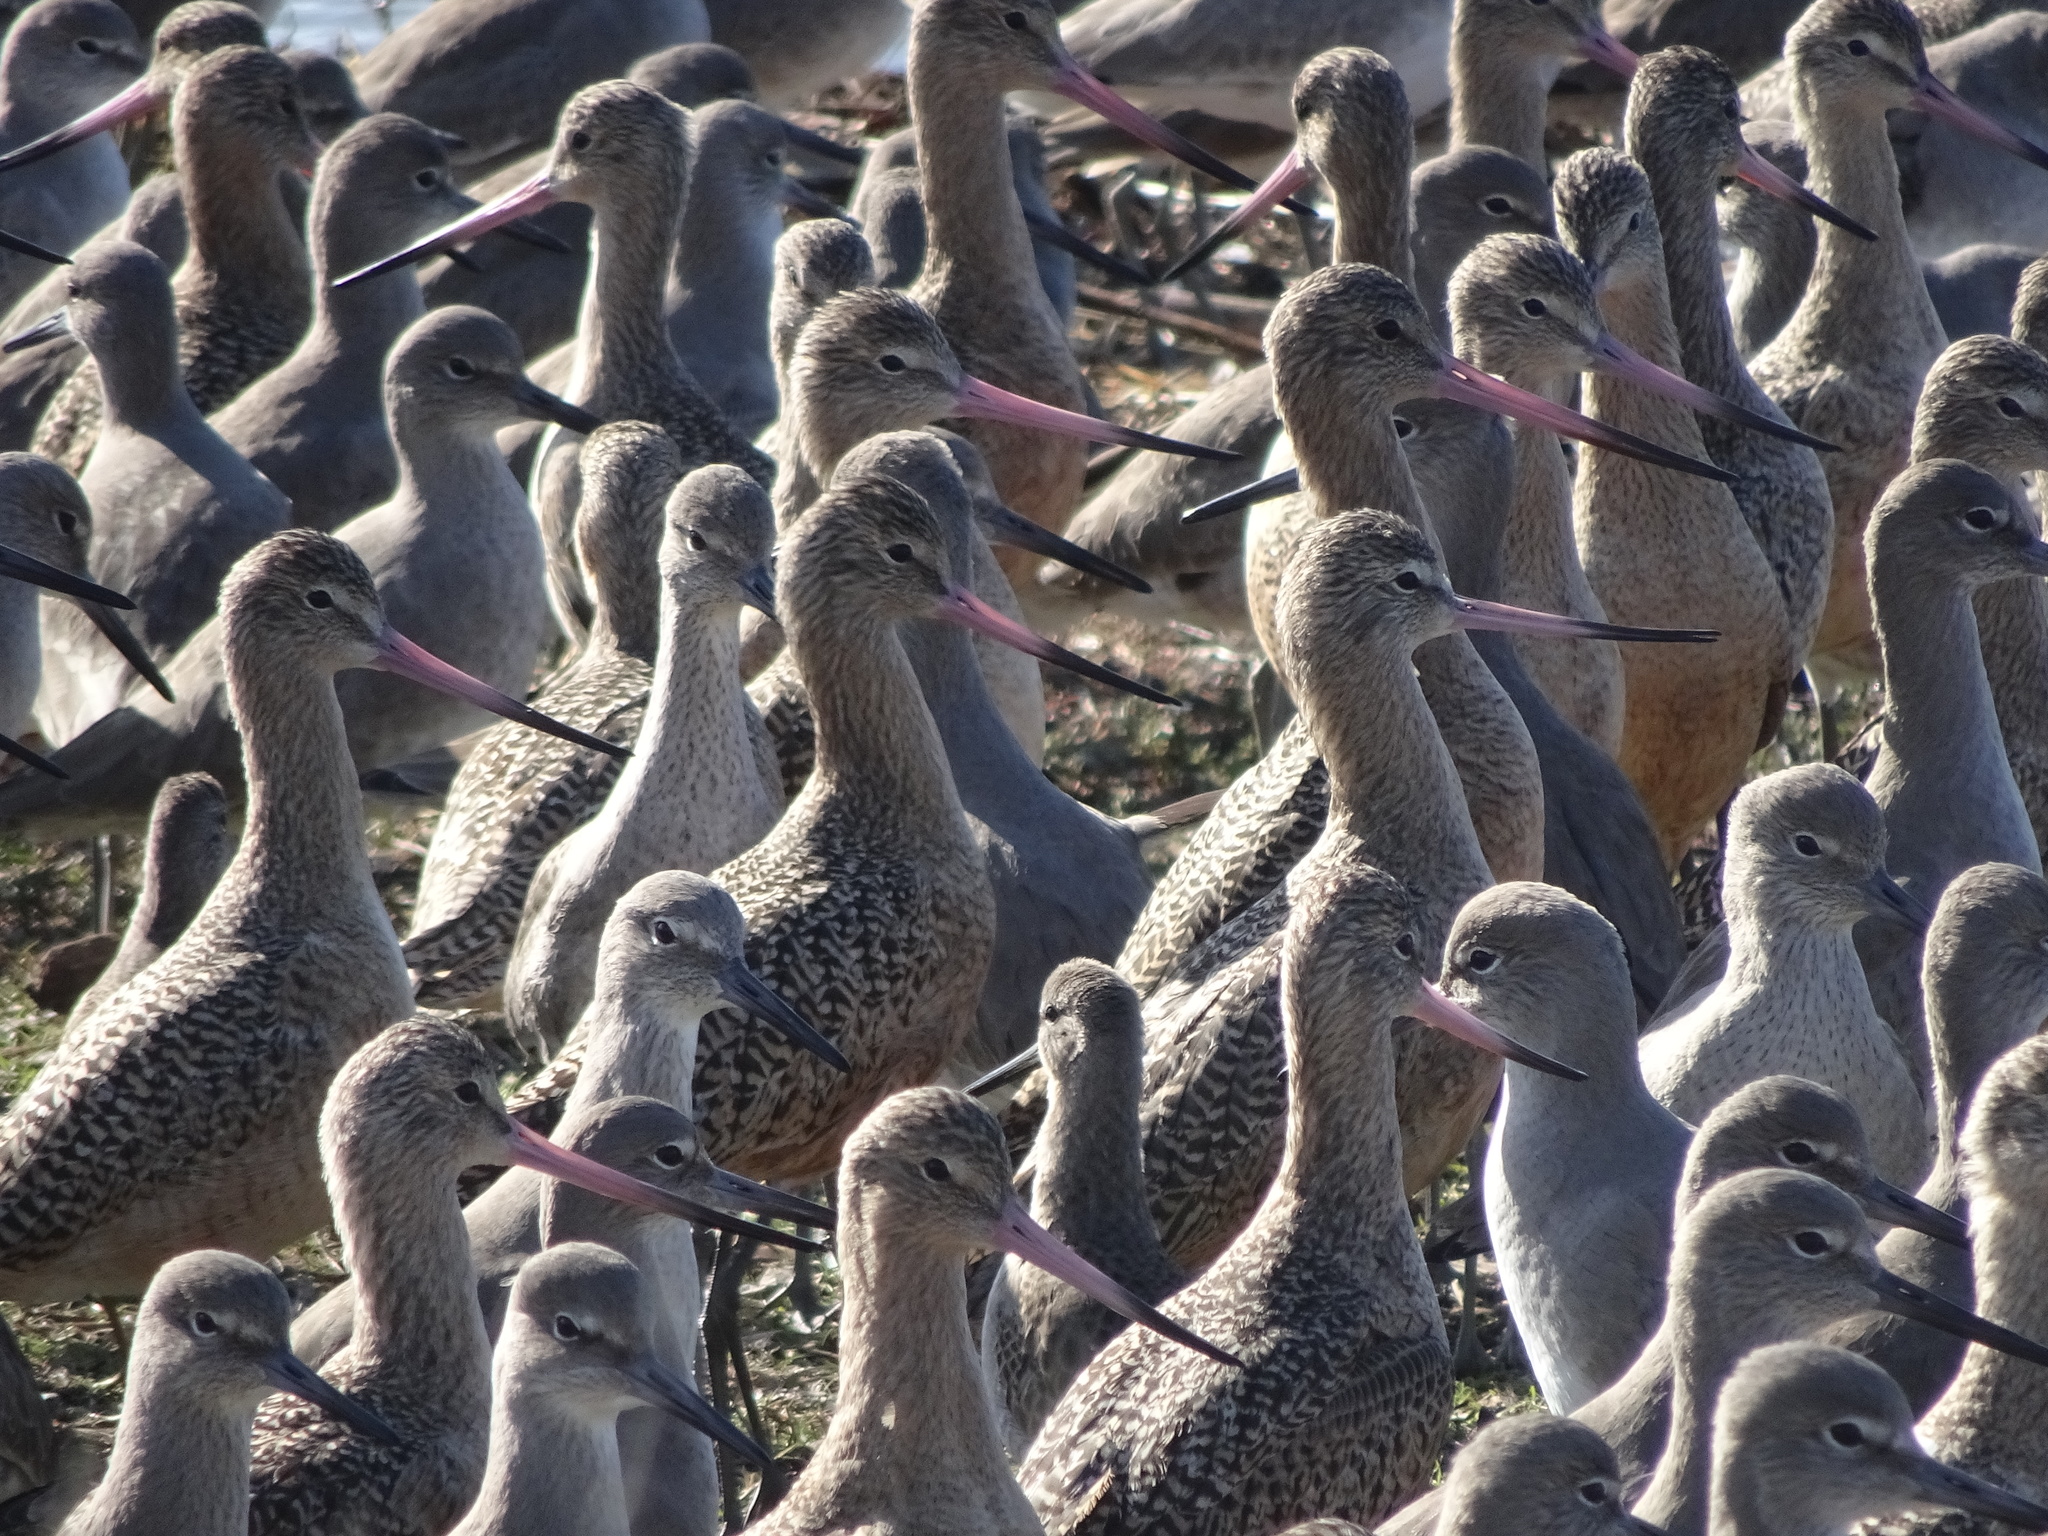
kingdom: Animalia
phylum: Chordata
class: Aves
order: Charadriiformes
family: Scolopacidae
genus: Limosa
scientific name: Limosa fedoa
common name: Marbled godwit
